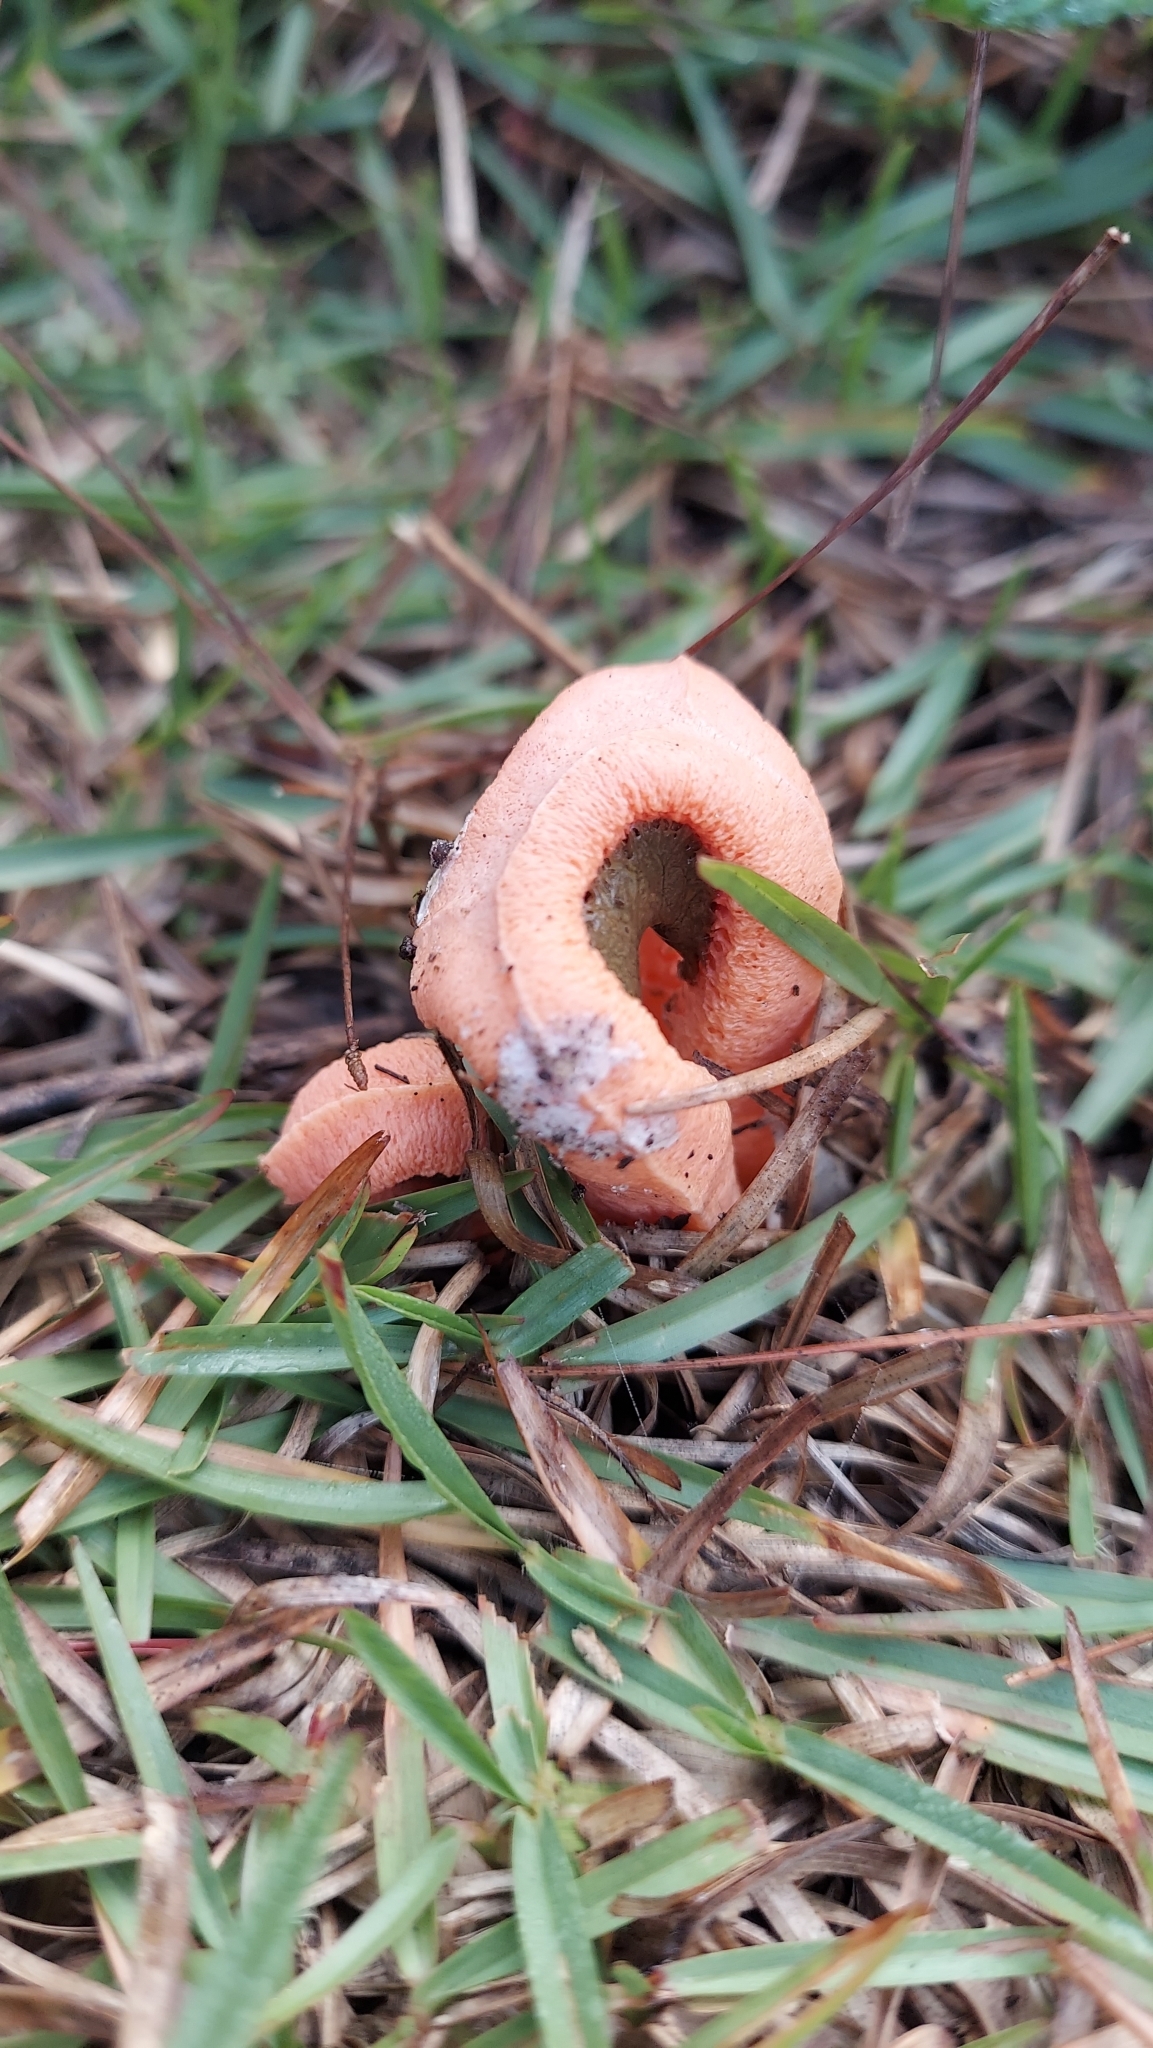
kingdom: Fungi
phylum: Basidiomycota
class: Agaricomycetes
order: Phallales
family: Phallaceae
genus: Clathrus
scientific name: Clathrus columnatus
